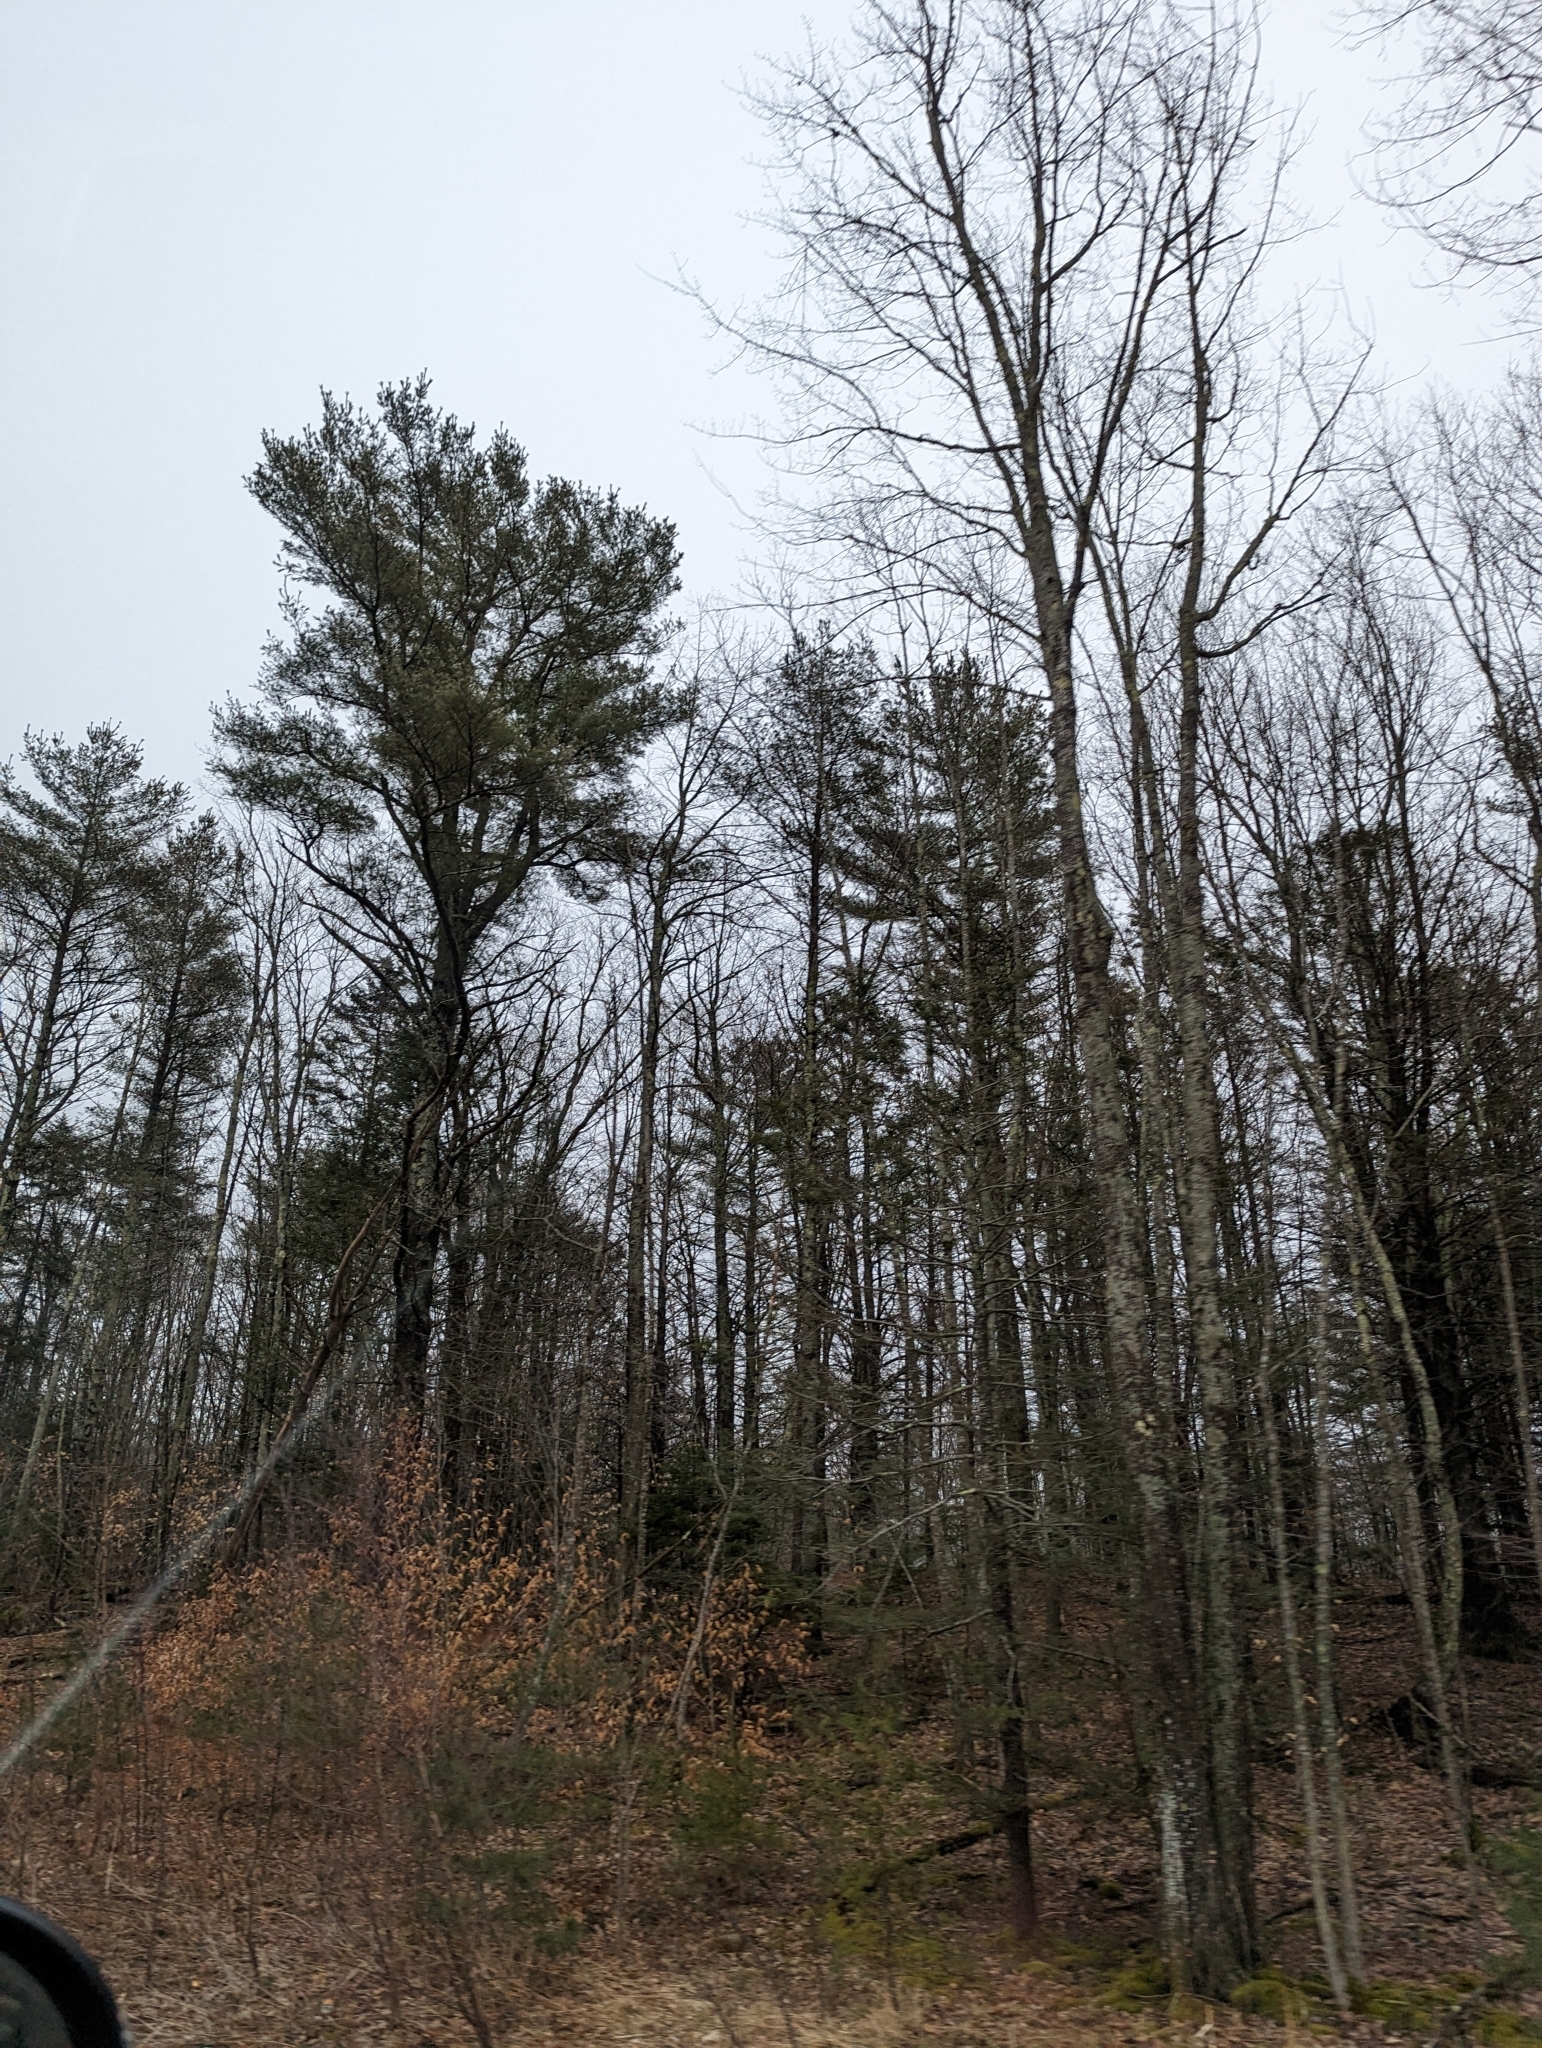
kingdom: Plantae
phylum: Tracheophyta
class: Pinopsida
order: Pinales
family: Pinaceae
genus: Pinus
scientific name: Pinus strobus
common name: Weymouth pine
